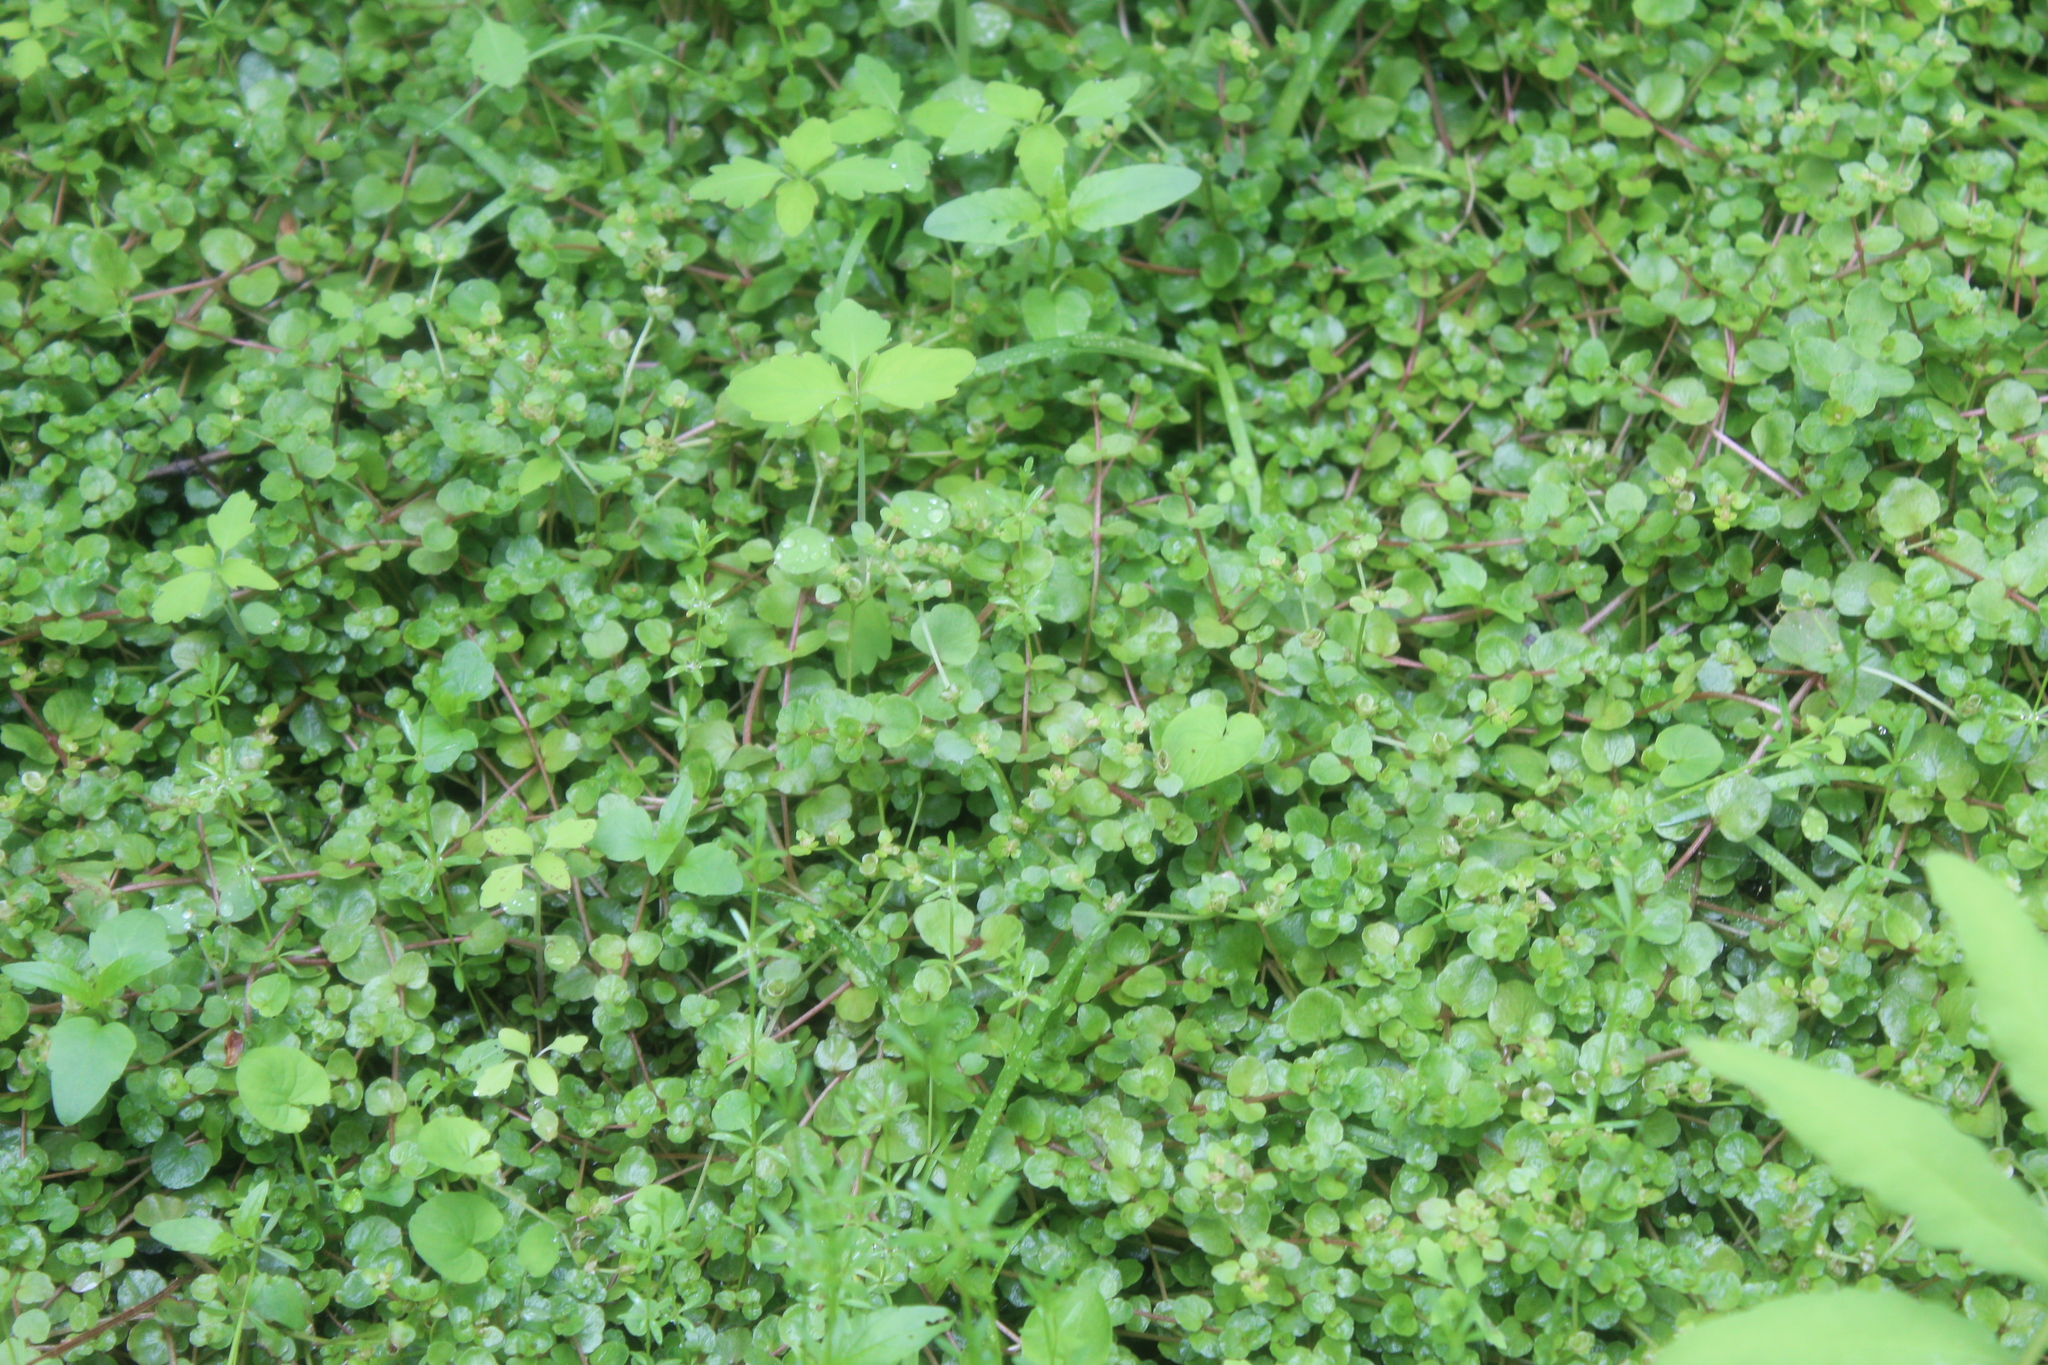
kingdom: Plantae
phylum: Tracheophyta
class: Magnoliopsida
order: Saxifragales
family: Saxifragaceae
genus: Chrysosplenium
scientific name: Chrysosplenium americanum
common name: American golden-saxifrage
